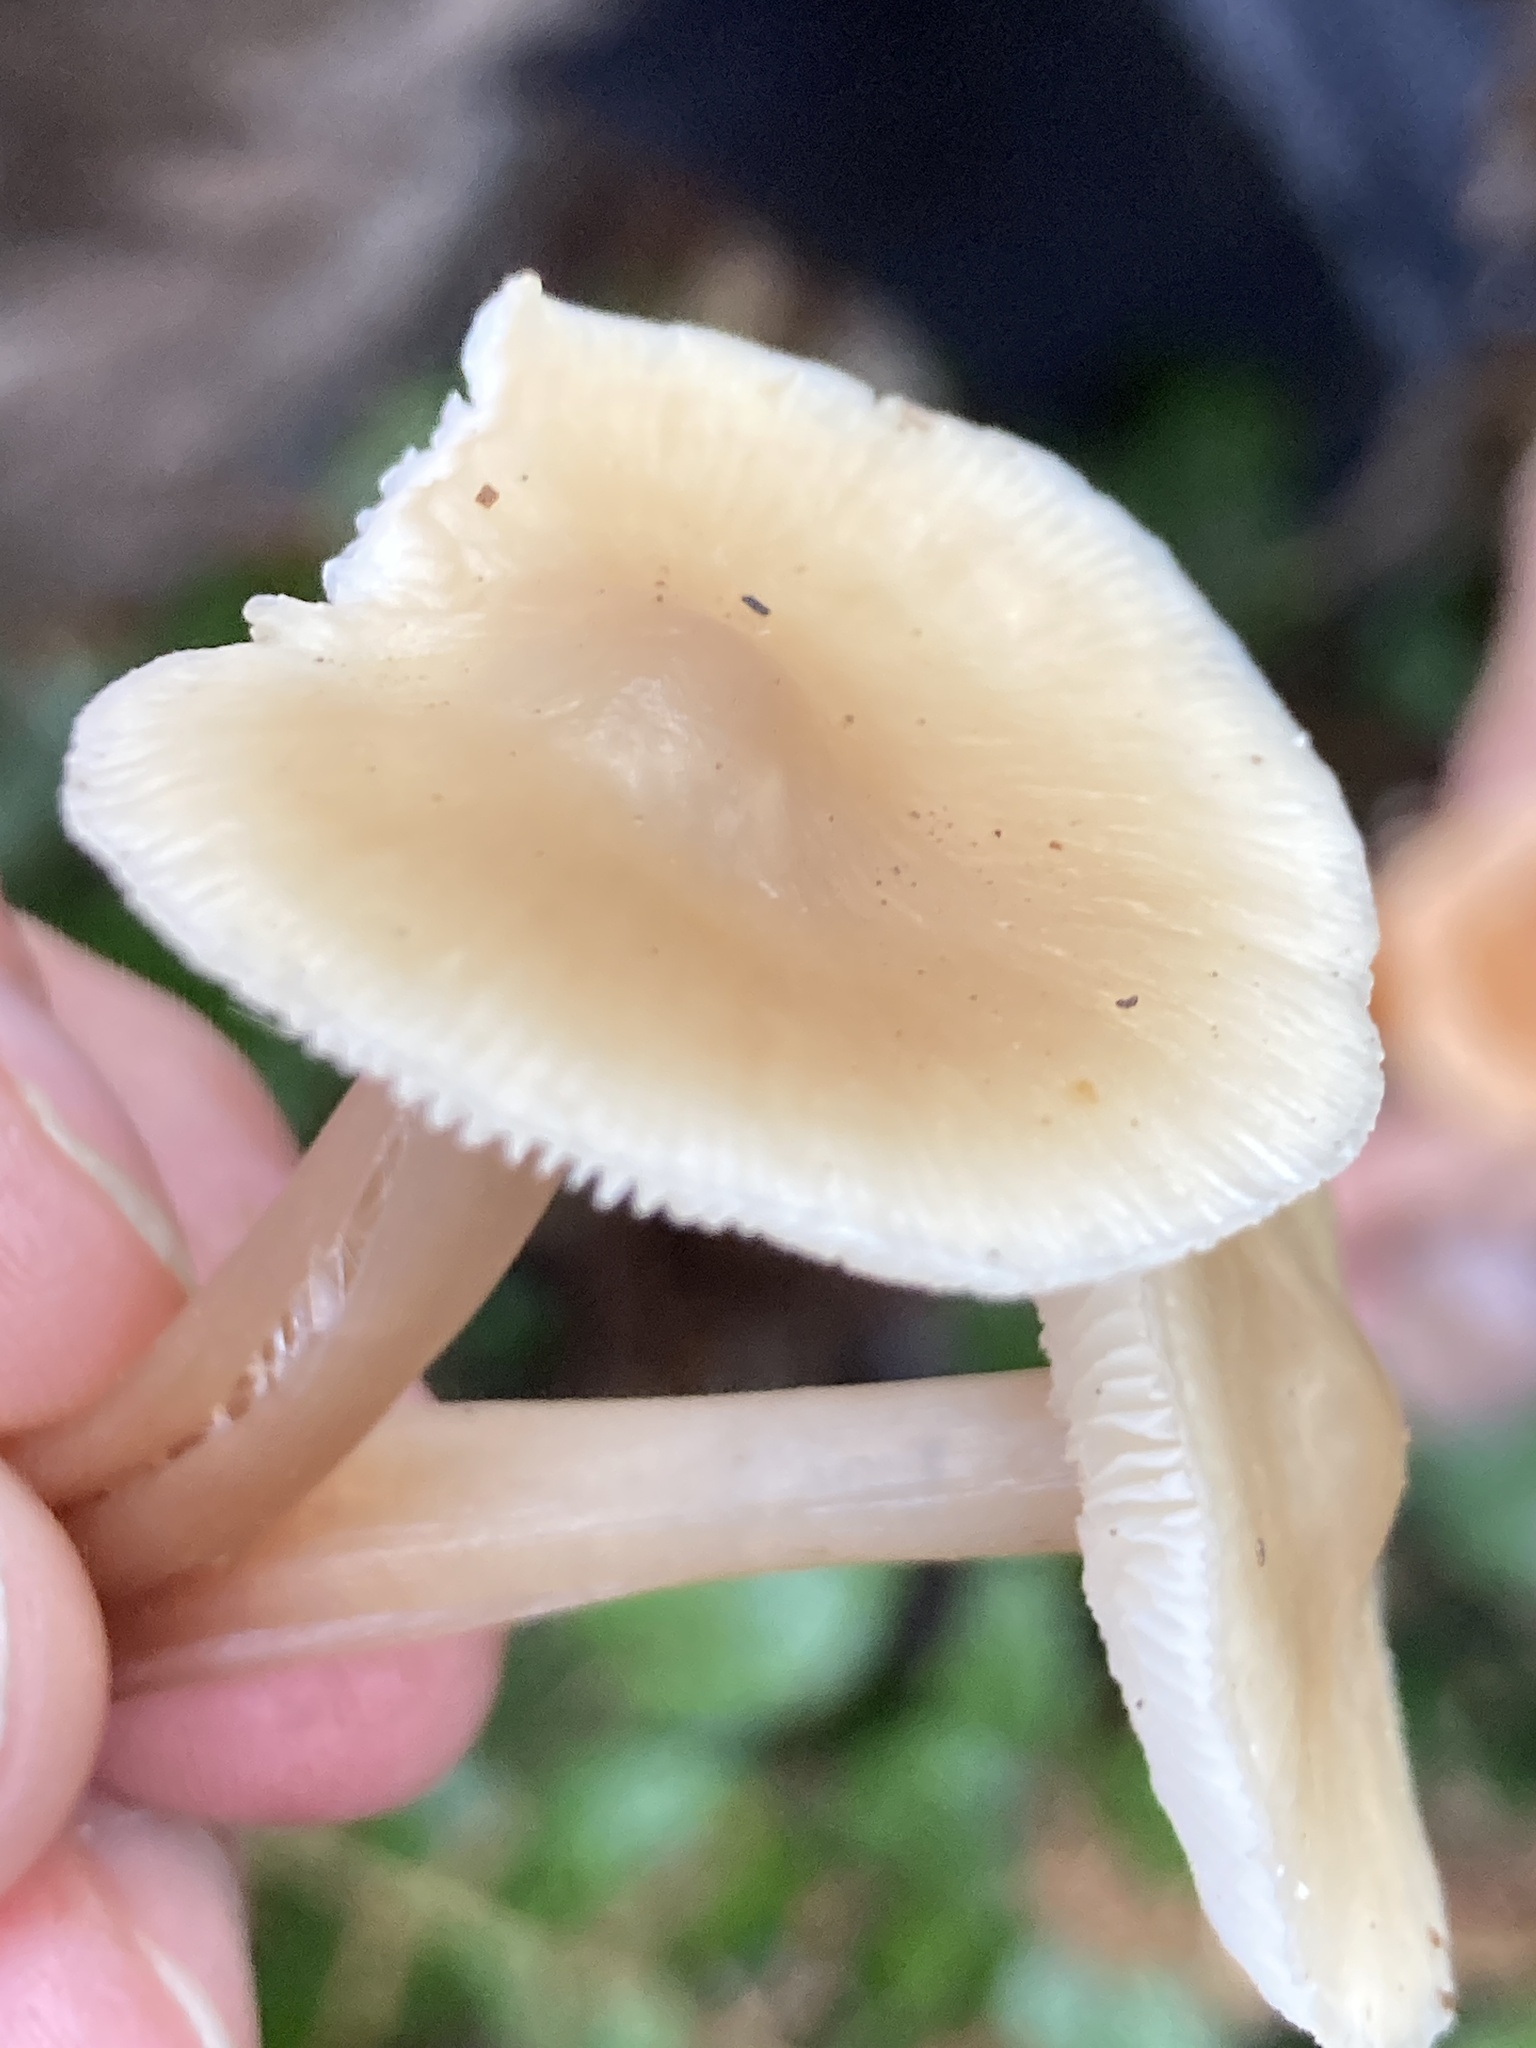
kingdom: Fungi
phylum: Basidiomycota
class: Agaricomycetes
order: Agaricales
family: Omphalotaceae
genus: Rhodocollybia
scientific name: Rhodocollybia butyracea
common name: Butter cap
